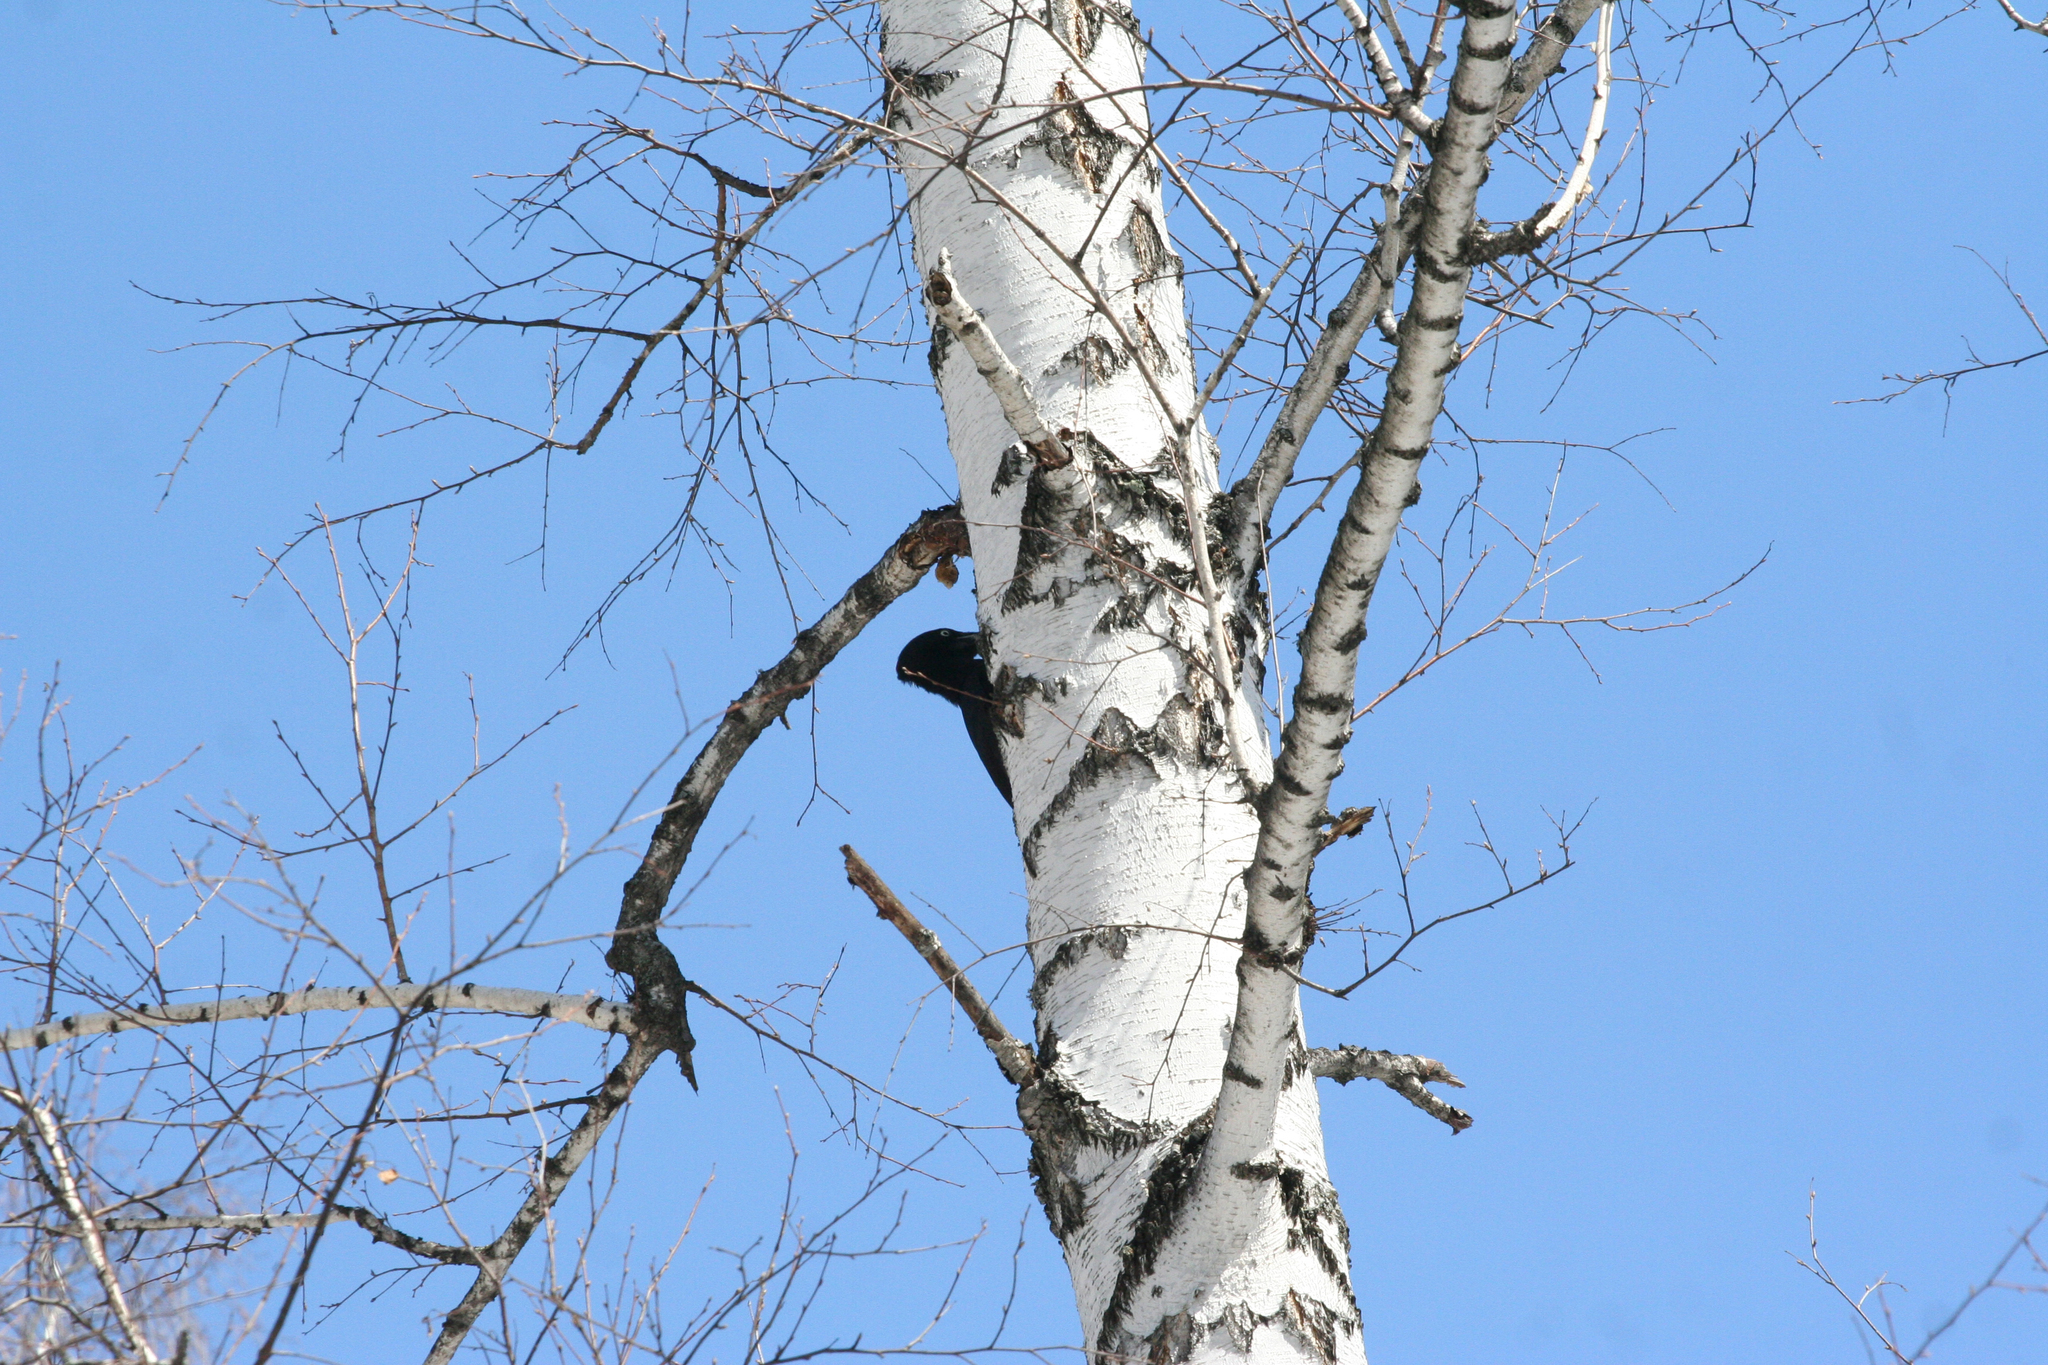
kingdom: Animalia
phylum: Chordata
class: Aves
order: Piciformes
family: Picidae
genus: Dryocopus
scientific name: Dryocopus martius
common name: Black woodpecker
